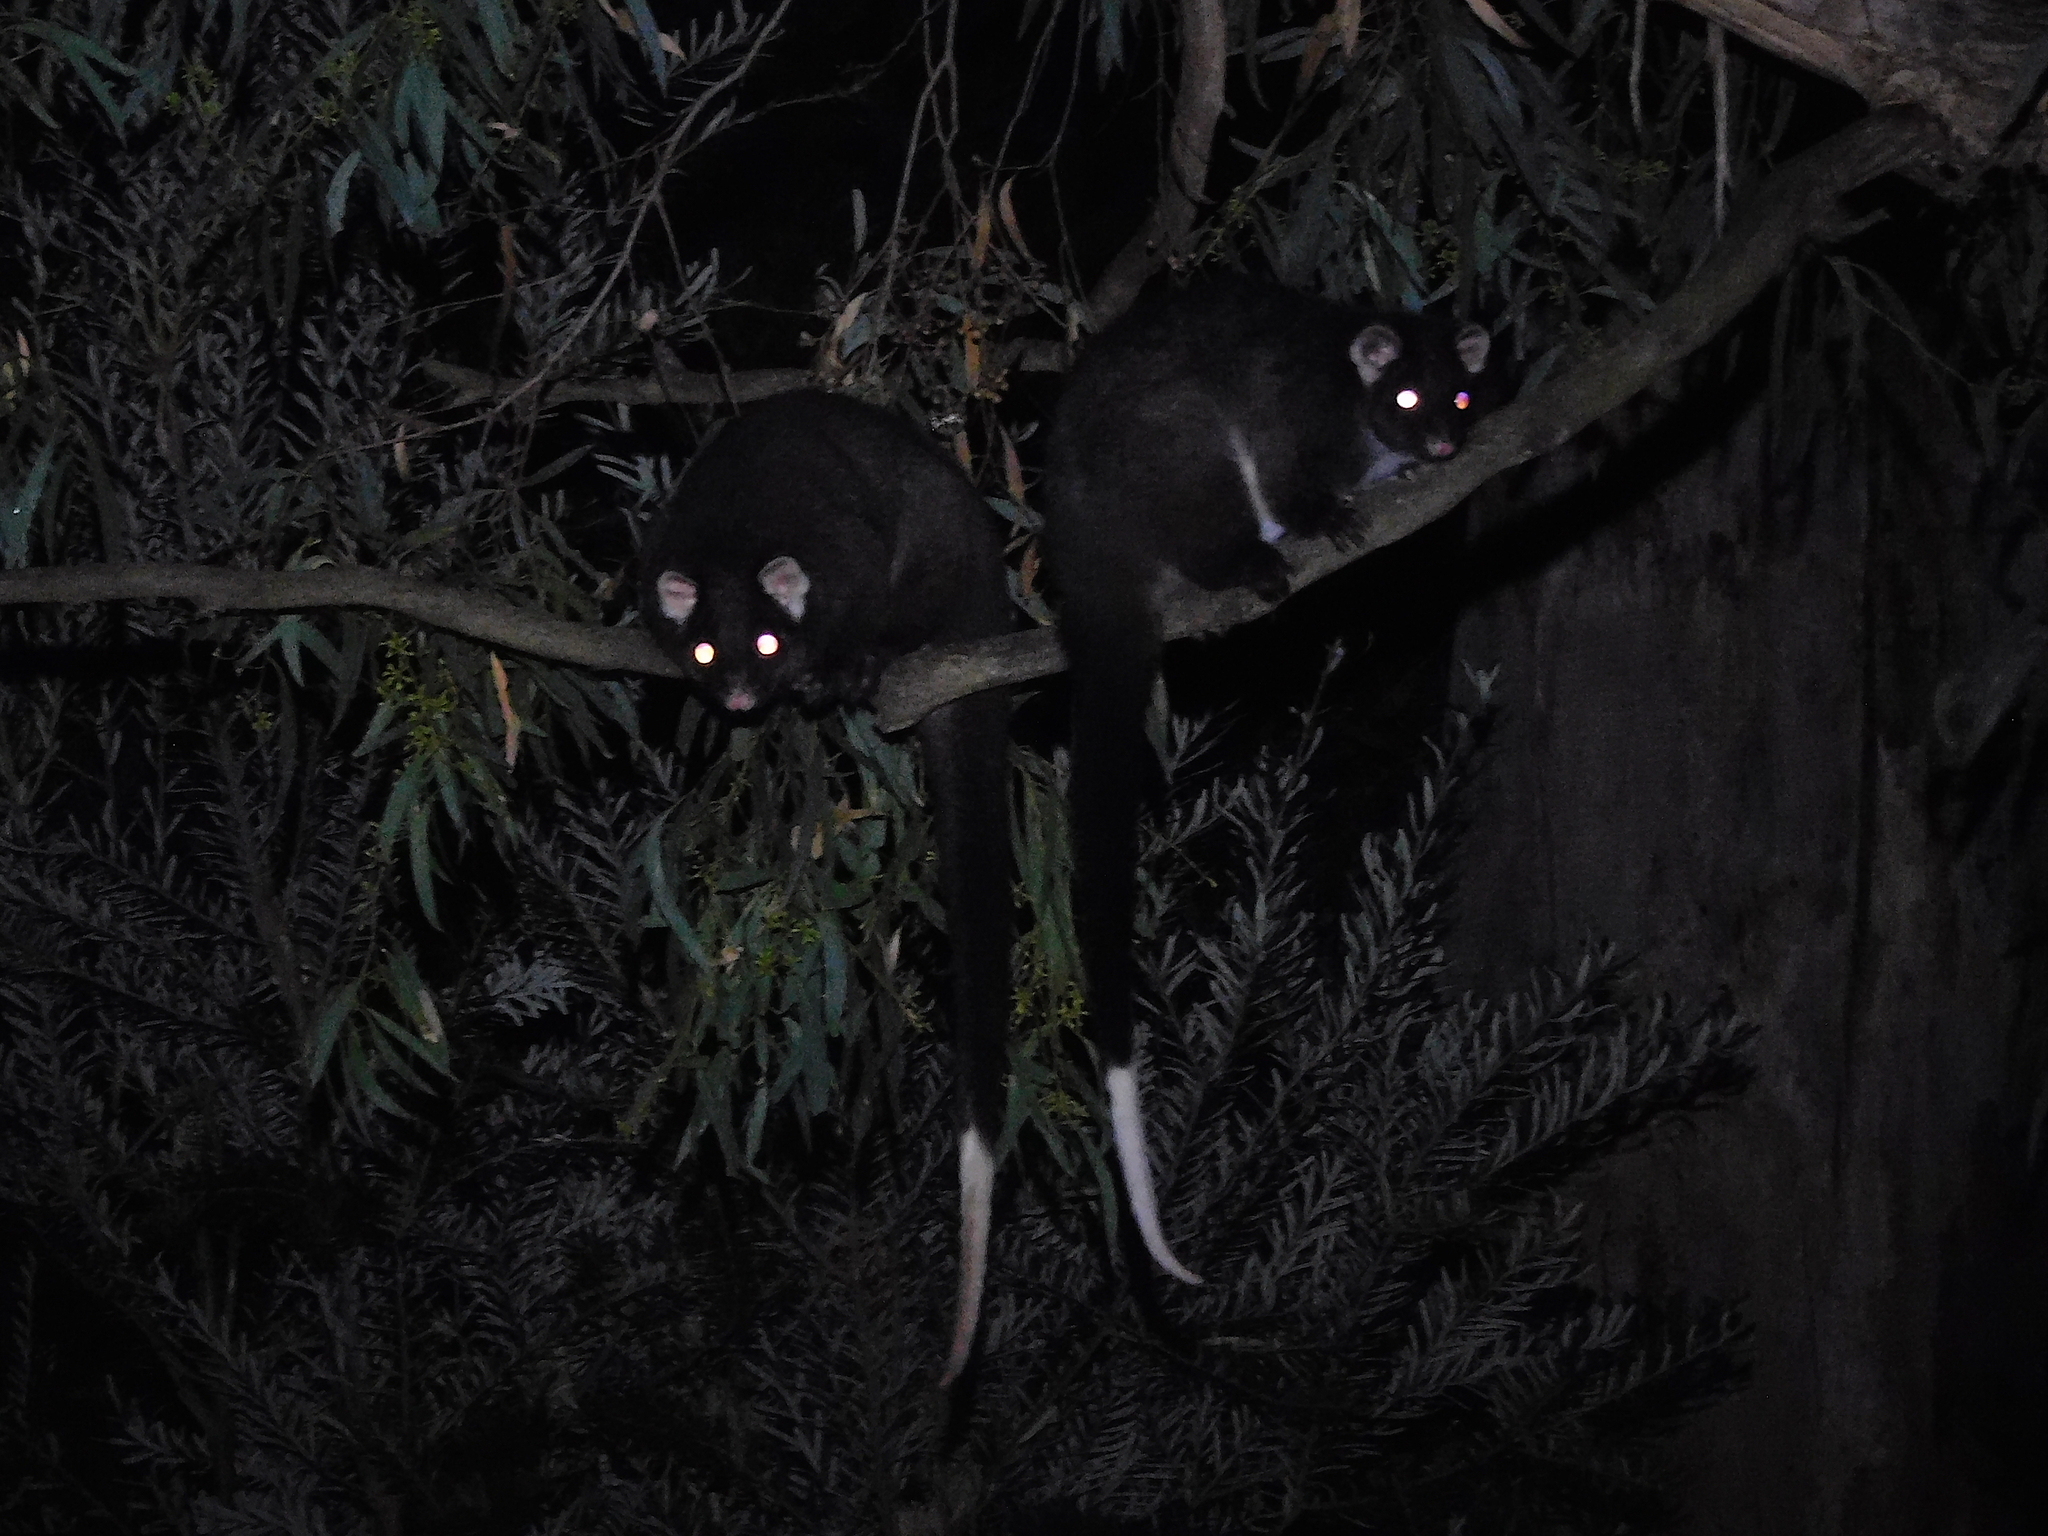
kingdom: Animalia
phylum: Chordata
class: Mammalia
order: Diprotodontia
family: Pseudocheiridae
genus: Pseudocheirus
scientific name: Pseudocheirus peregrinus
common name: Common ringtail possum
